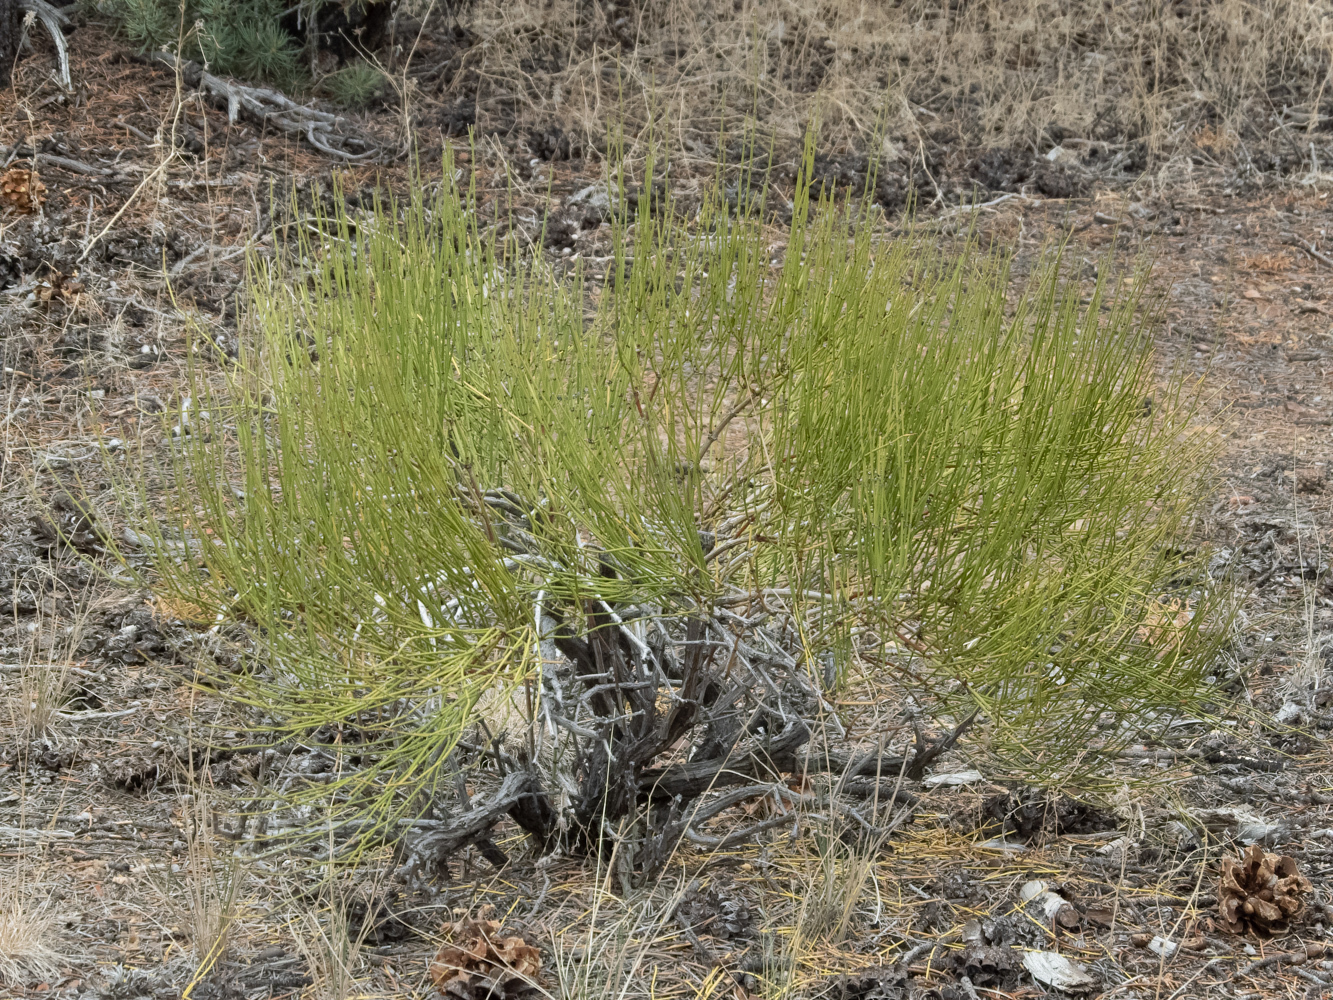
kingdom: Plantae
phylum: Tracheophyta
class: Gnetopsida
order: Ephedrales
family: Ephedraceae
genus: Ephedra
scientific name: Ephedra viridis
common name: Green ephedra
